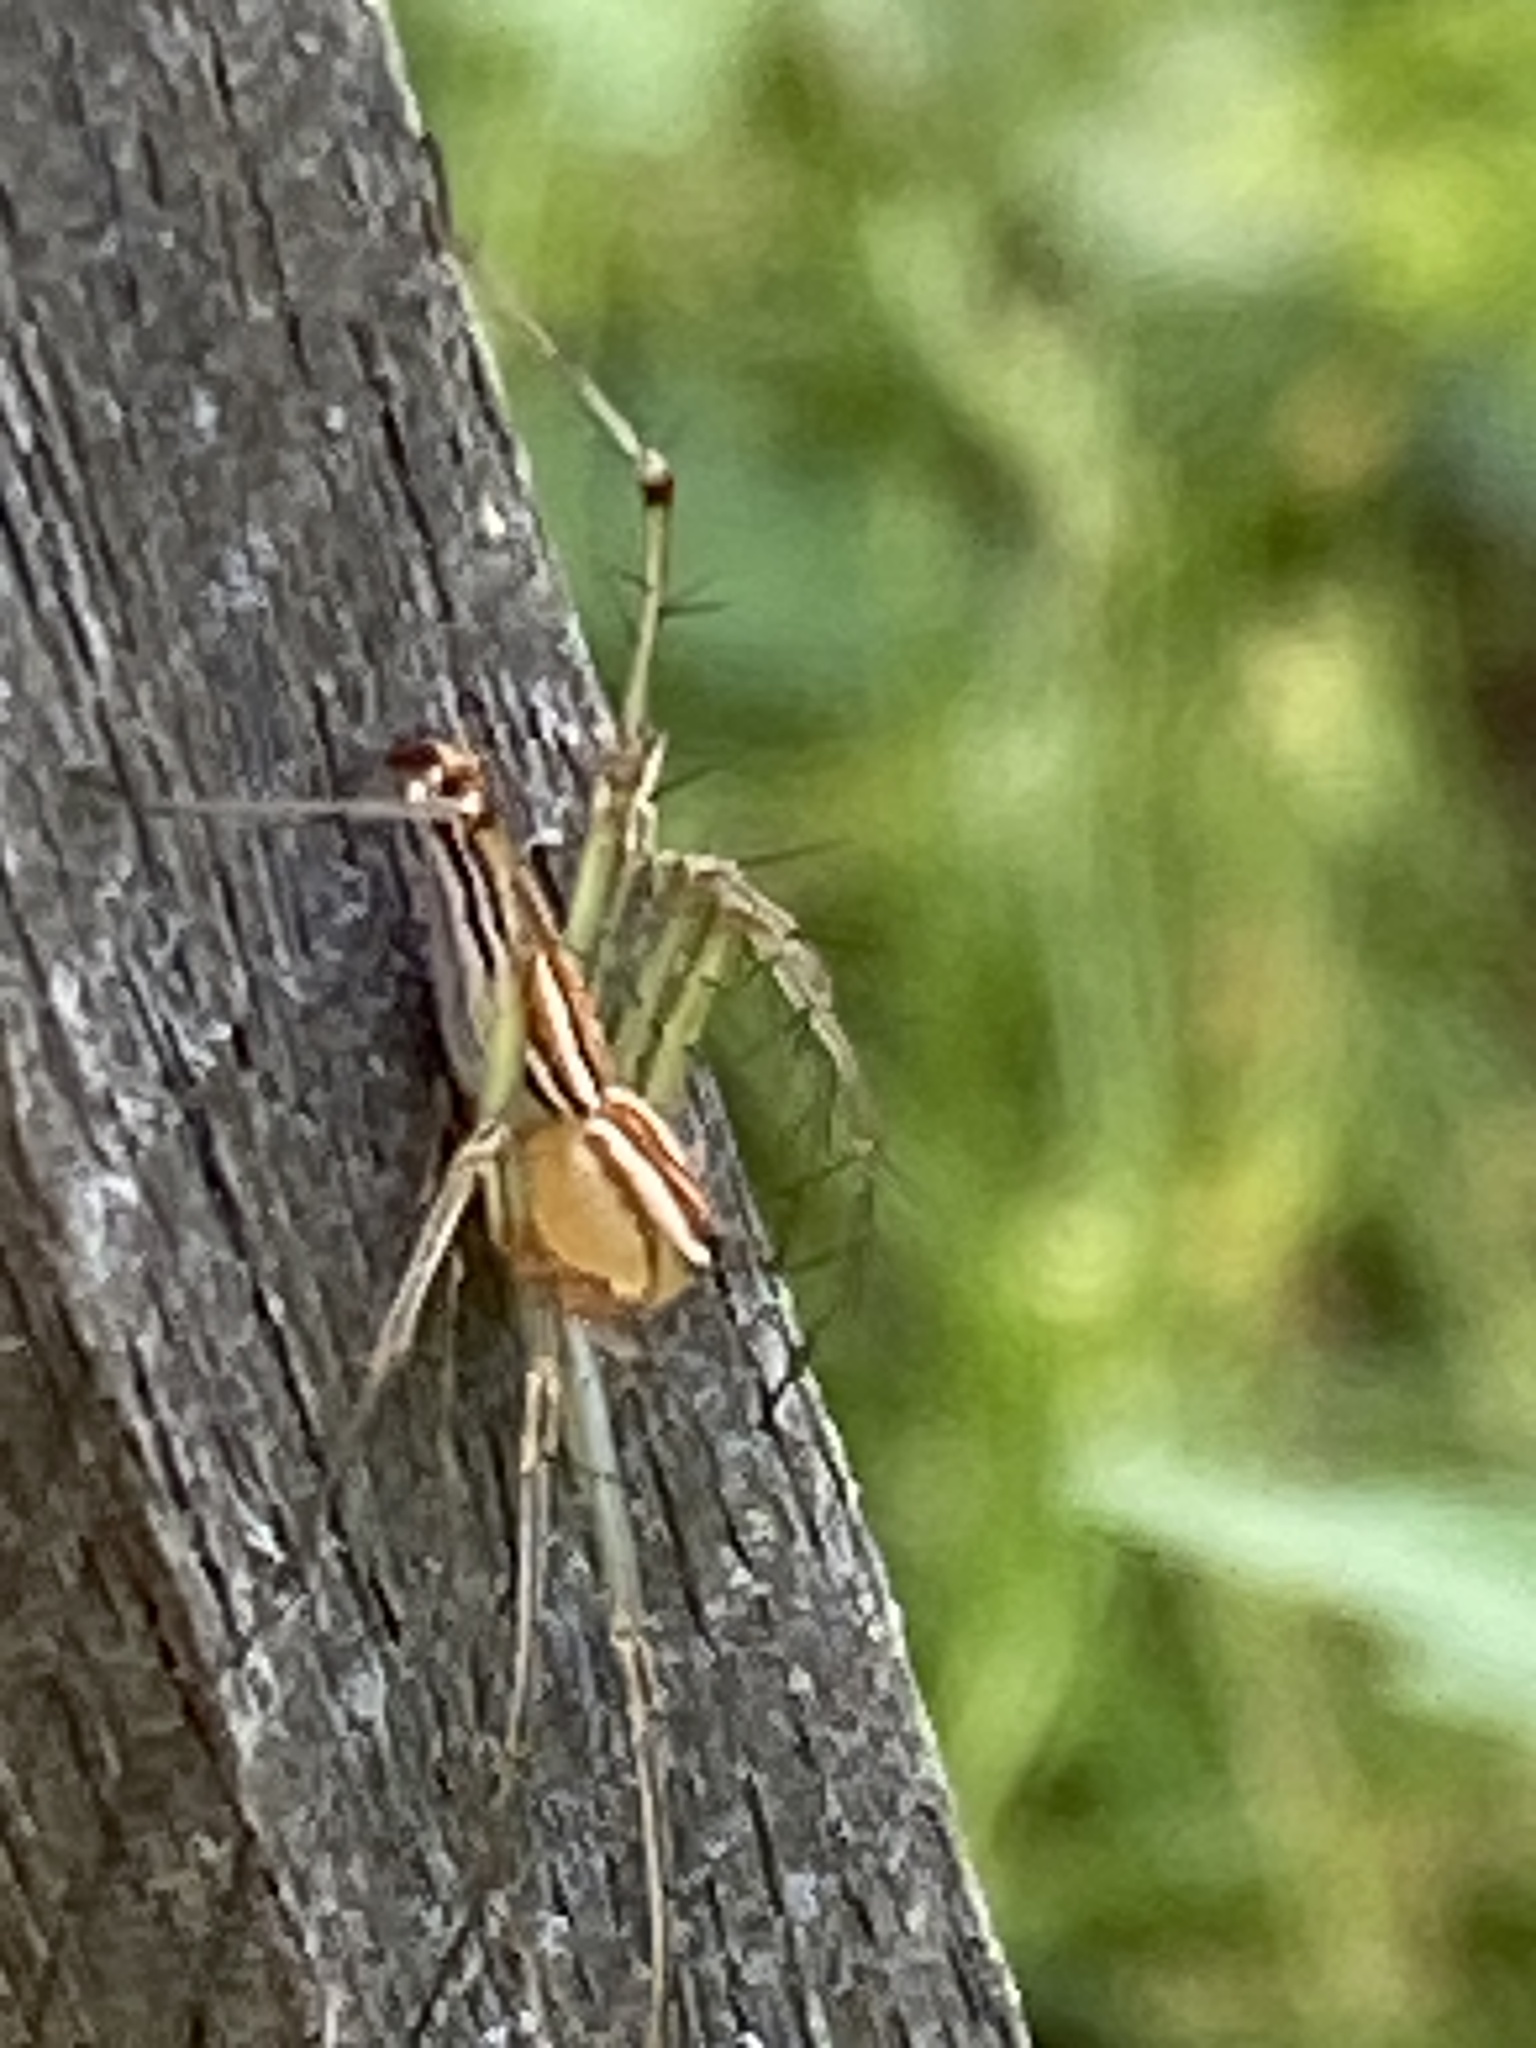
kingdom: Animalia
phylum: Arthropoda
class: Arachnida
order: Araneae
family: Oxyopidae
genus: Oxyopes
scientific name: Oxyopes macilentus
